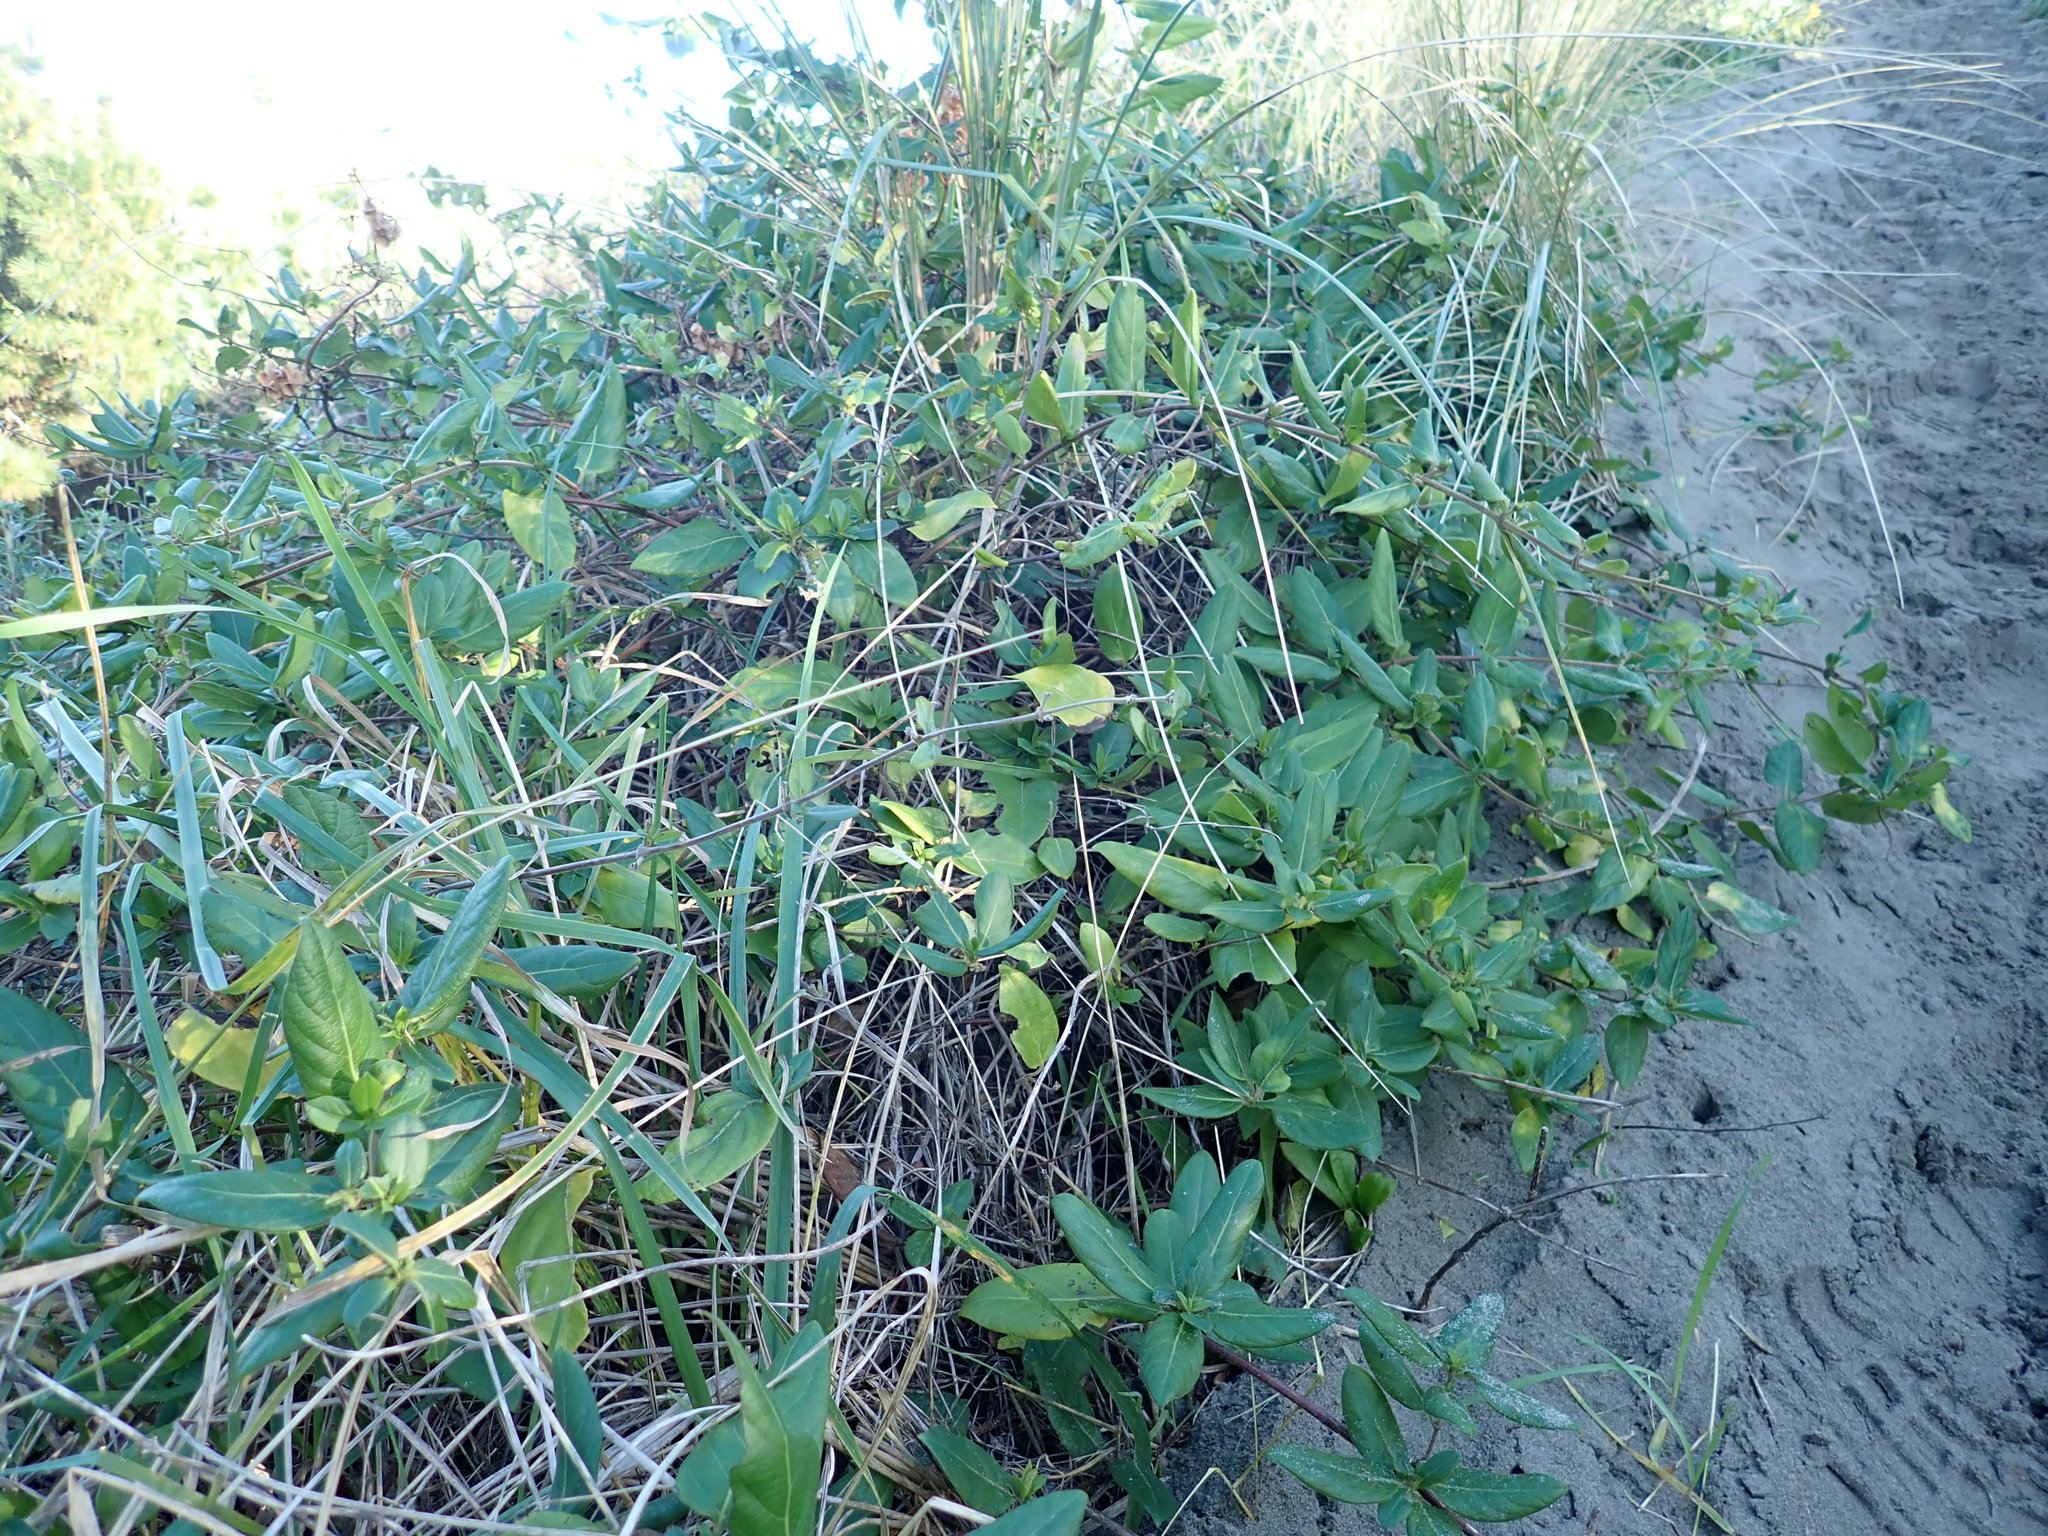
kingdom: Plantae
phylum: Tracheophyta
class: Magnoliopsida
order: Dipsacales
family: Caprifoliaceae
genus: Lonicera
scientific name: Lonicera japonica
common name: Japanese honeysuckle
